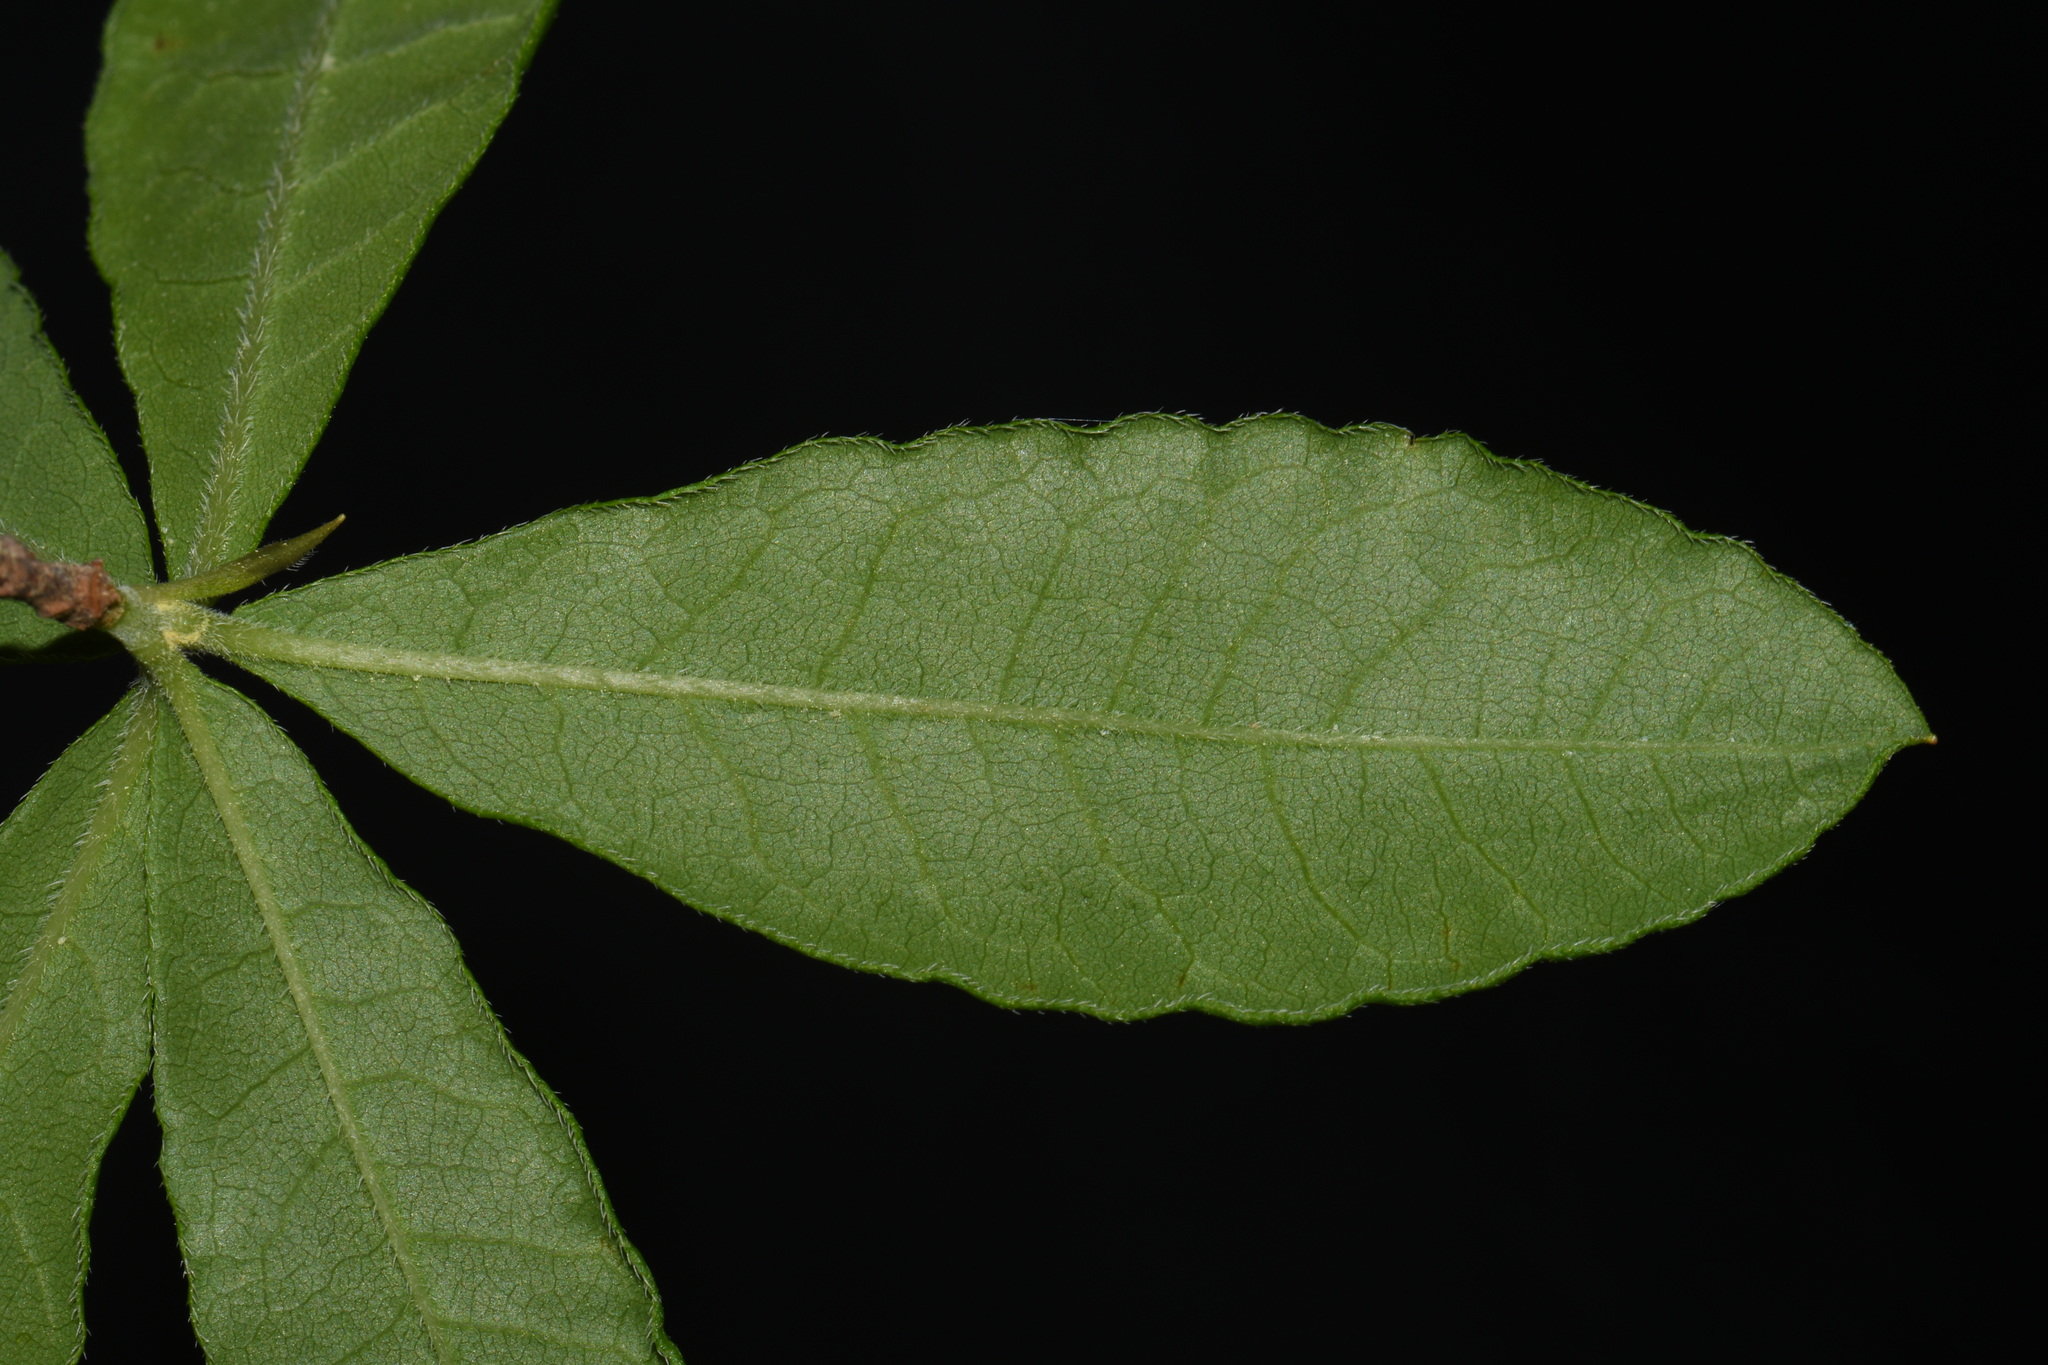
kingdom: Plantae
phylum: Tracheophyta
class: Magnoliopsida
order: Ericales
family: Ericaceae
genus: Rhododendron
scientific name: Rhododendron canescens
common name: Mountain azalea
